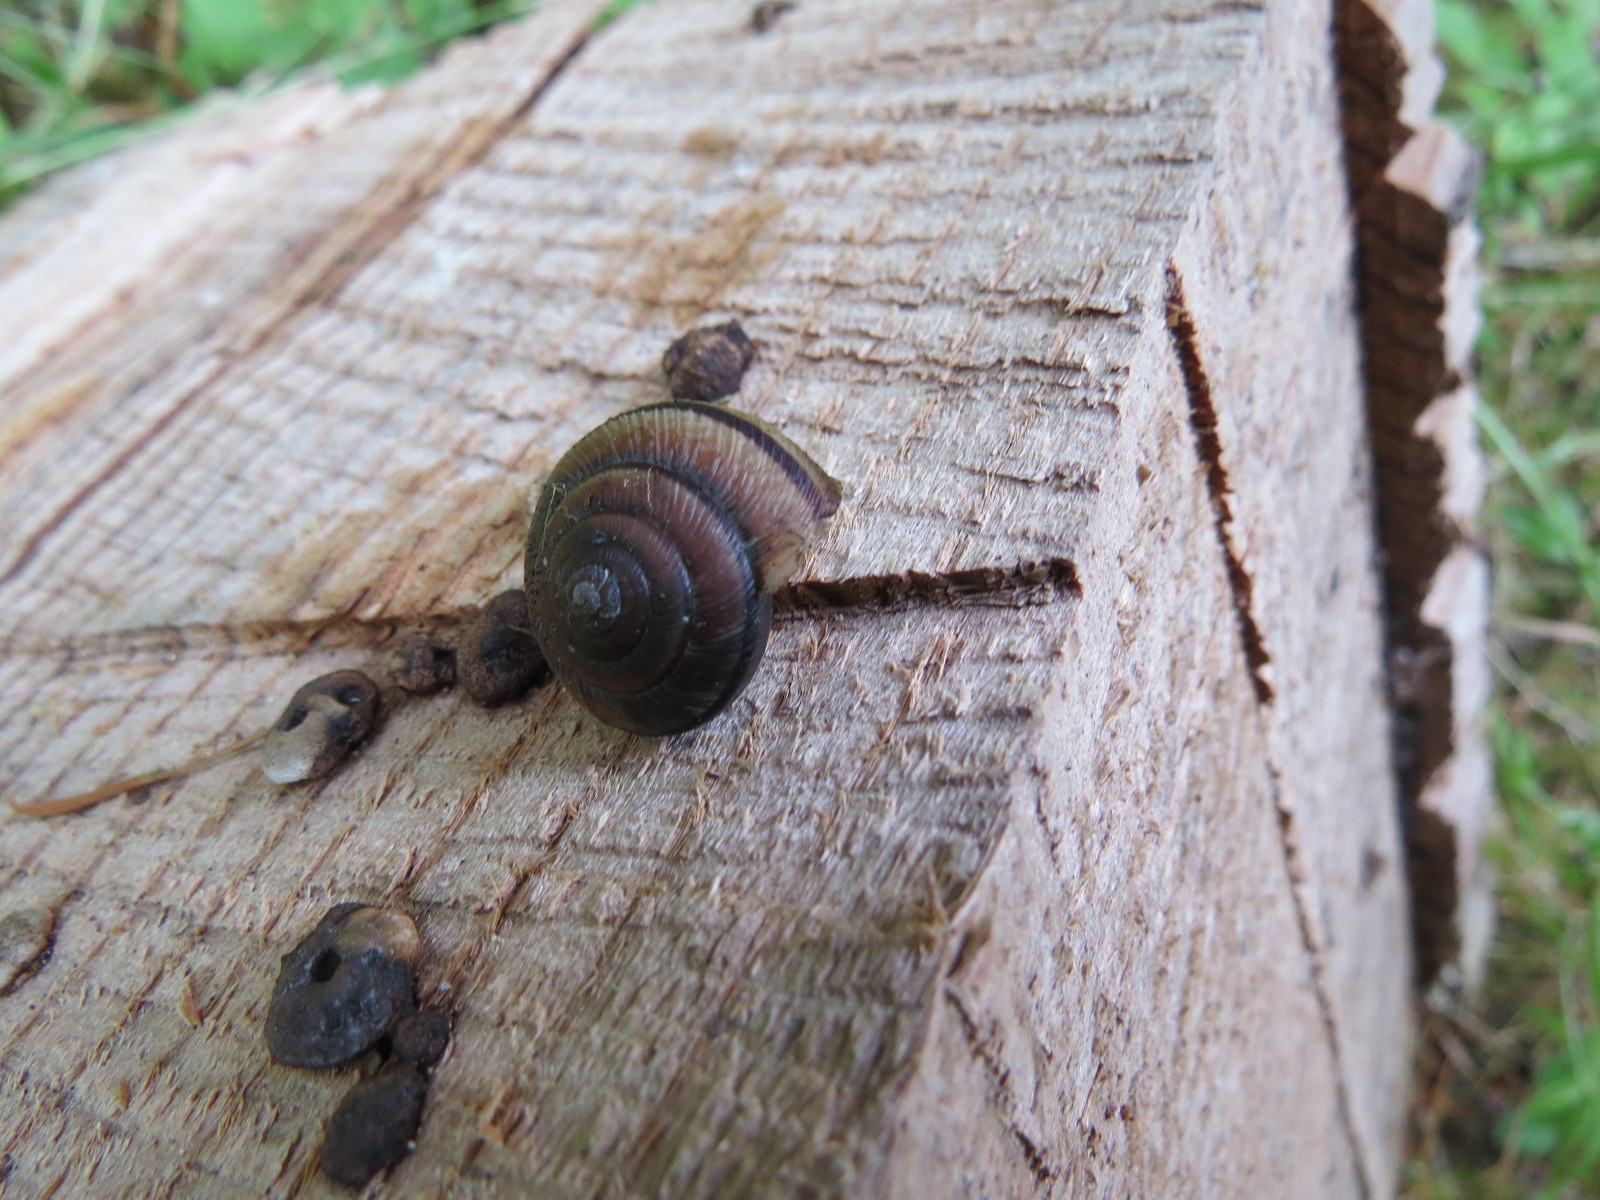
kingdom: Animalia
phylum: Mollusca
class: Gastropoda
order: Stylommatophora
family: Xanthonychidae
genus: Helminthoglypta
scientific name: Helminthoglypta exarata
